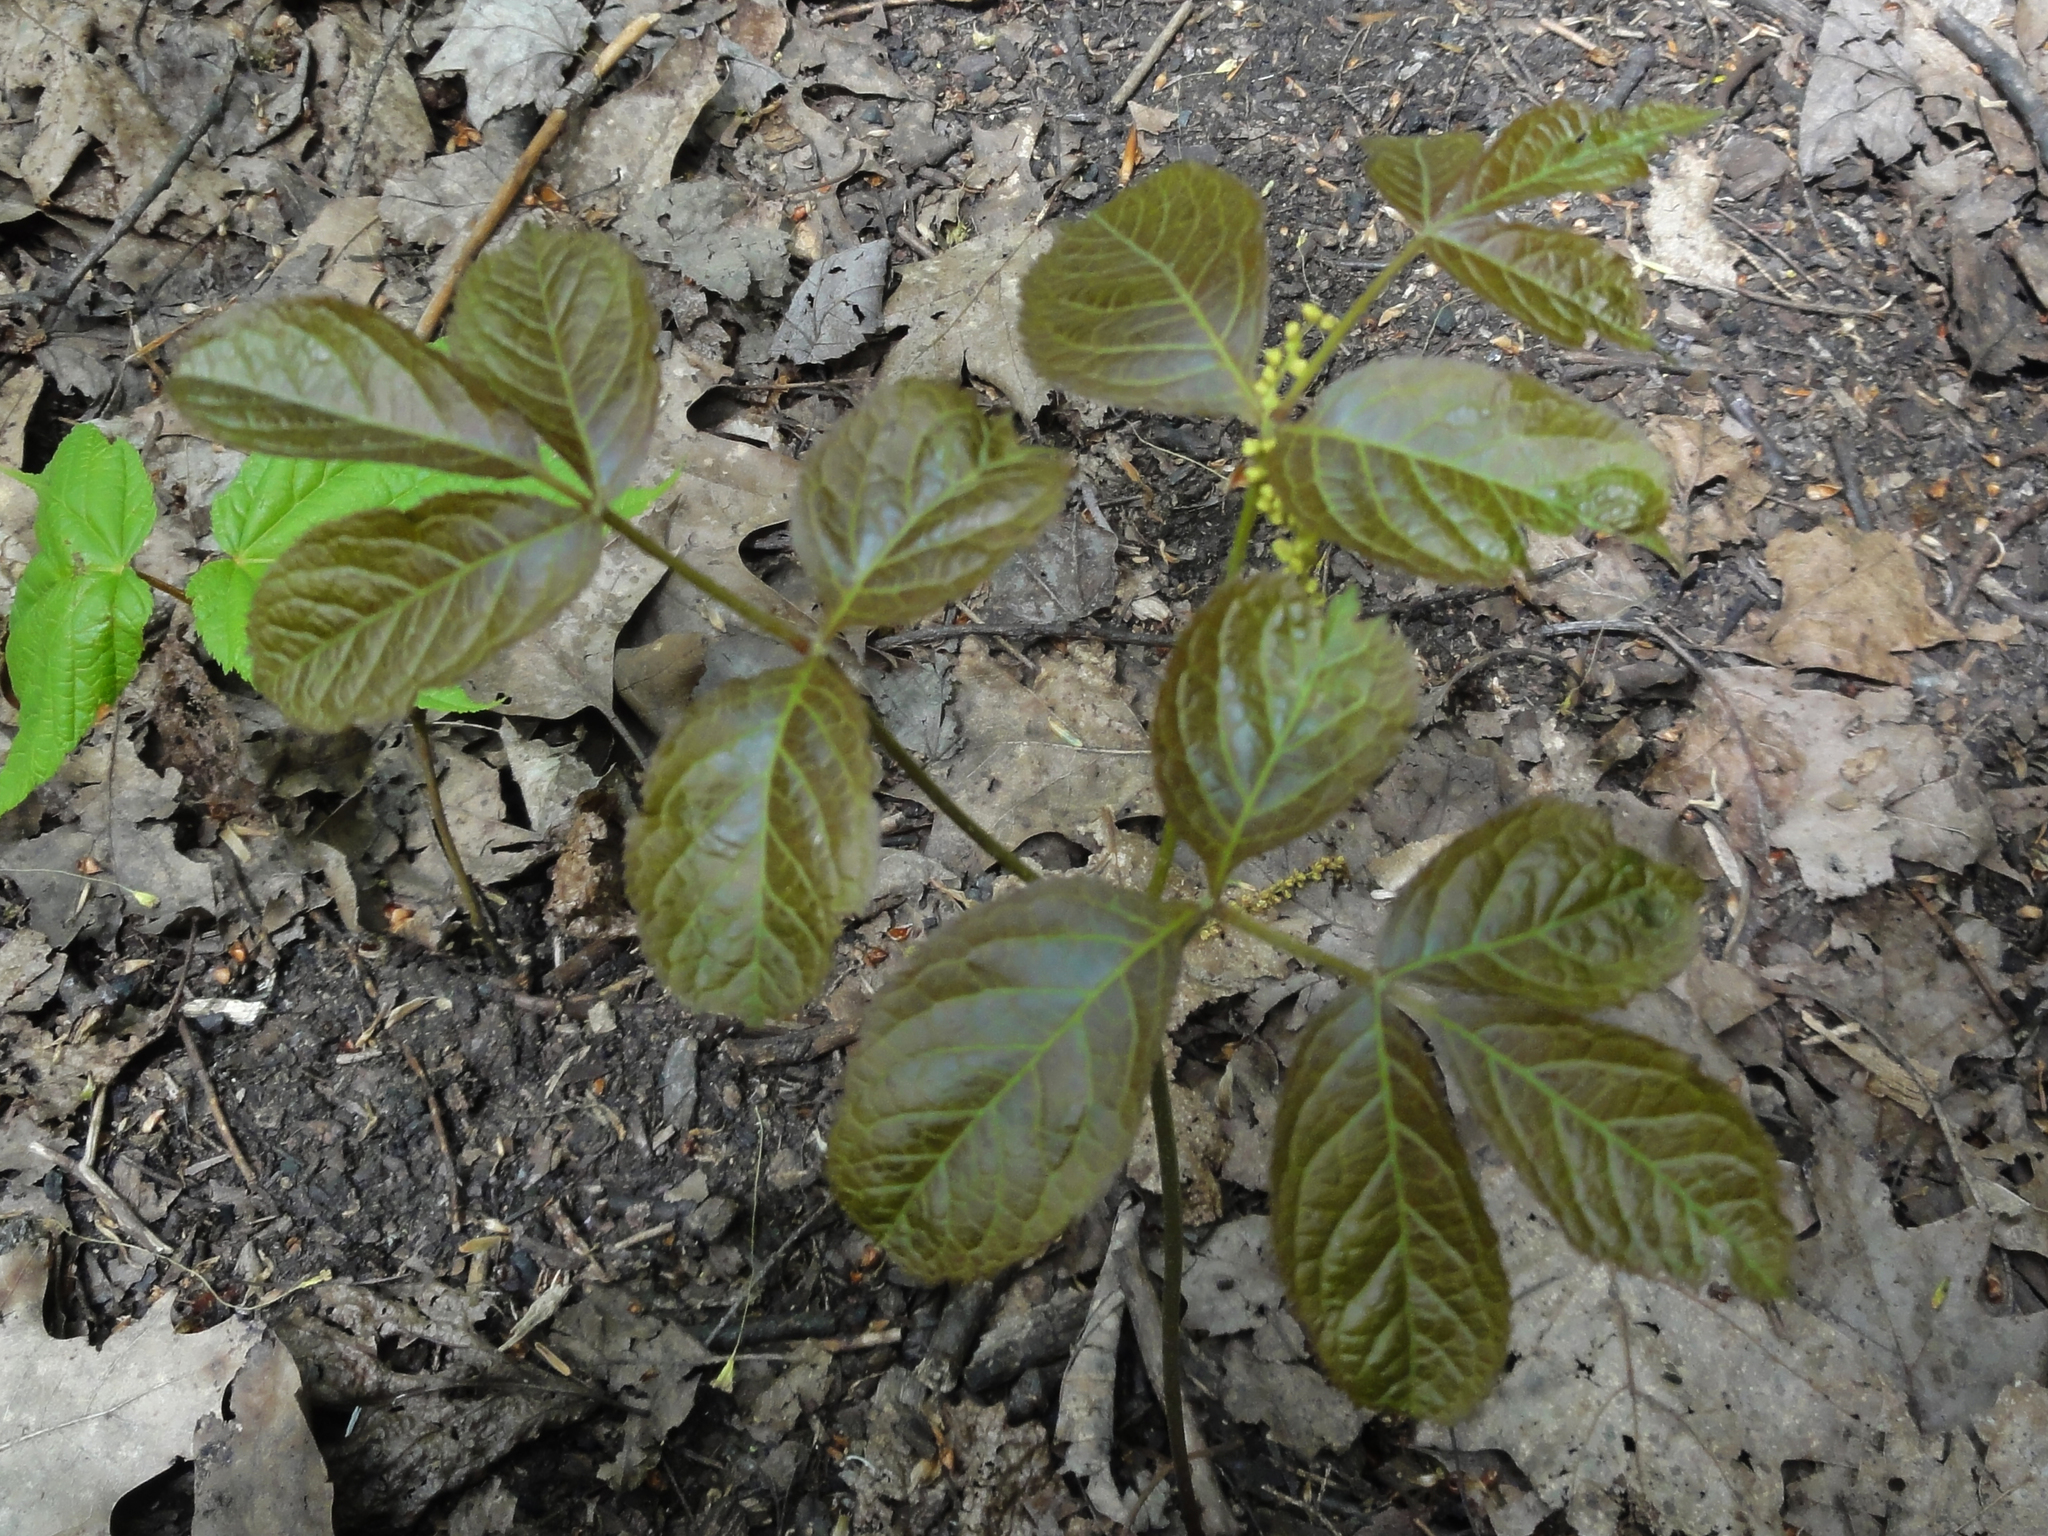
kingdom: Plantae
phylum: Tracheophyta
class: Magnoliopsida
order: Apiales
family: Araliaceae
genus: Aralia
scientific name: Aralia nudicaulis
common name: Wild sarsaparilla
